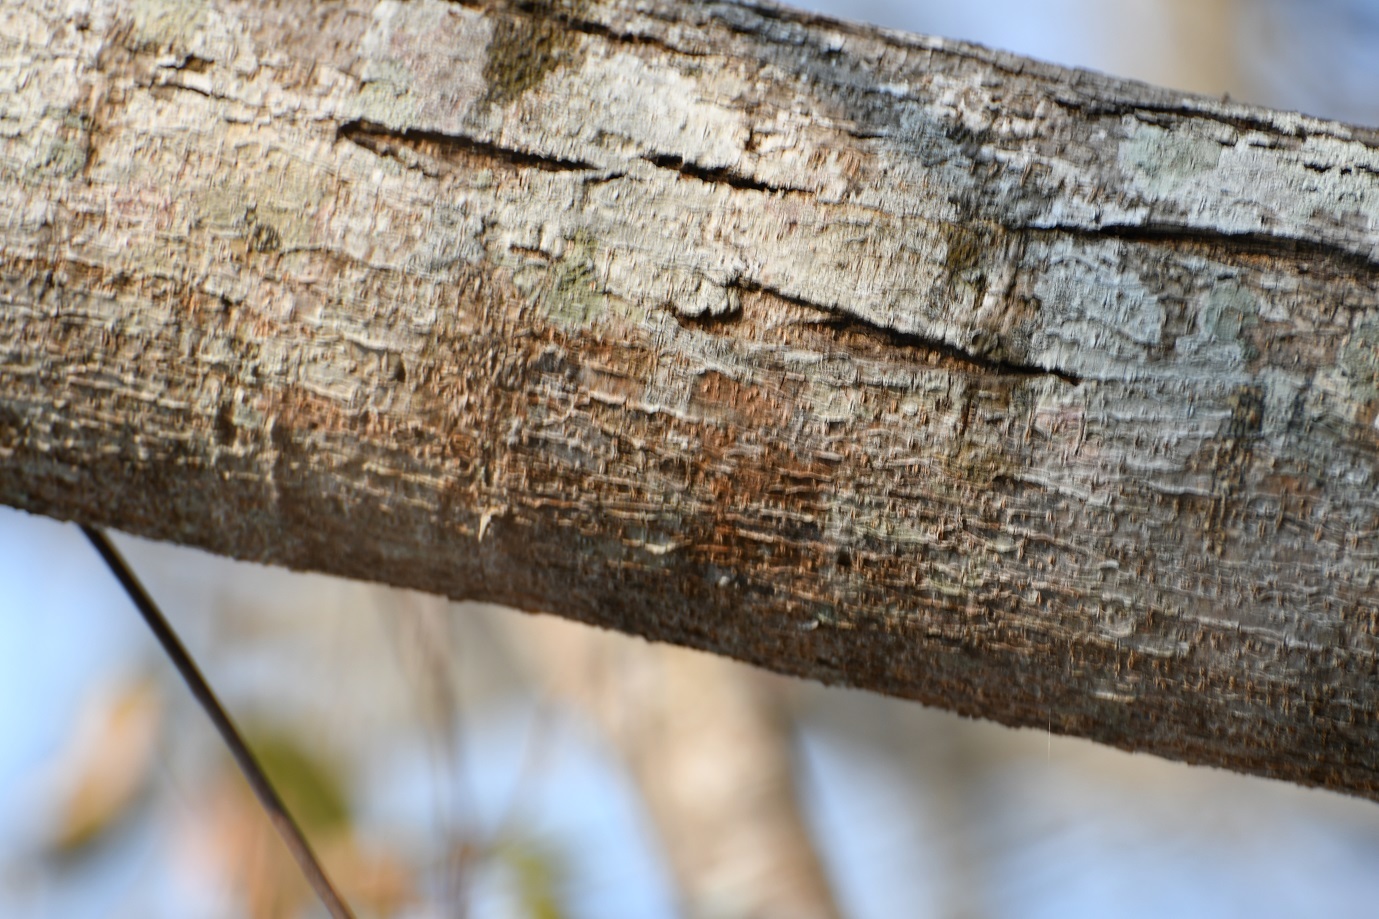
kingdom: Plantae
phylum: Tracheophyta
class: Magnoliopsida
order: Fabales
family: Fabaceae
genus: Vachellia
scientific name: Vachellia macracantha
